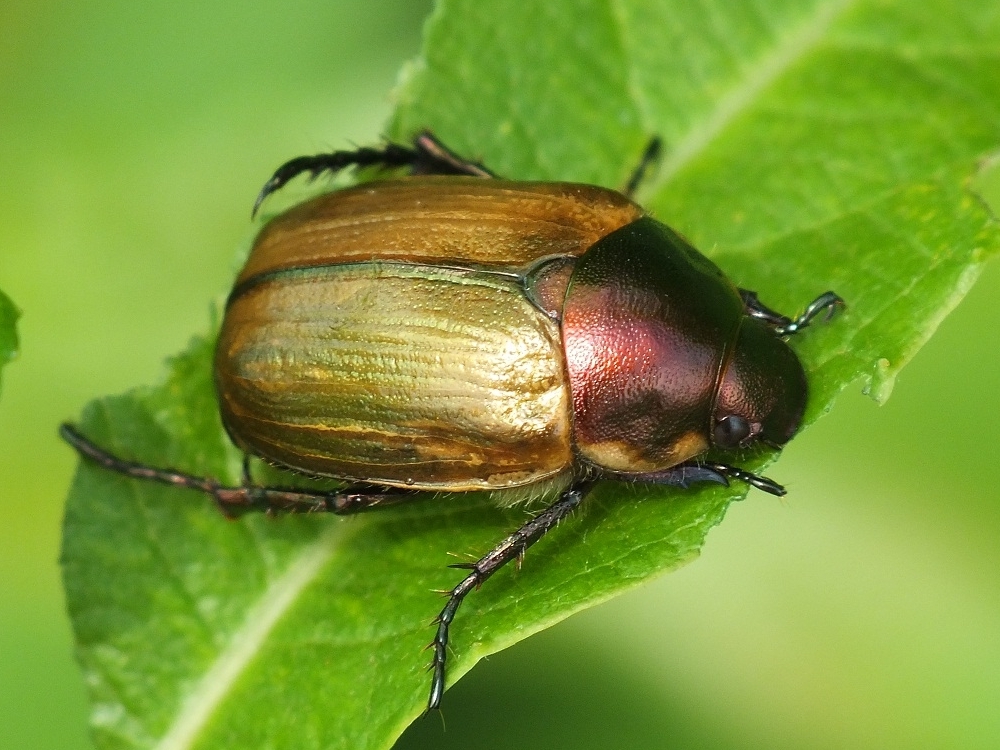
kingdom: Animalia
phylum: Arthropoda
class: Insecta
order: Coleoptera
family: Scarabaeidae
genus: Anomala
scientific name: Anomala dubia
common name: Dune chafer
